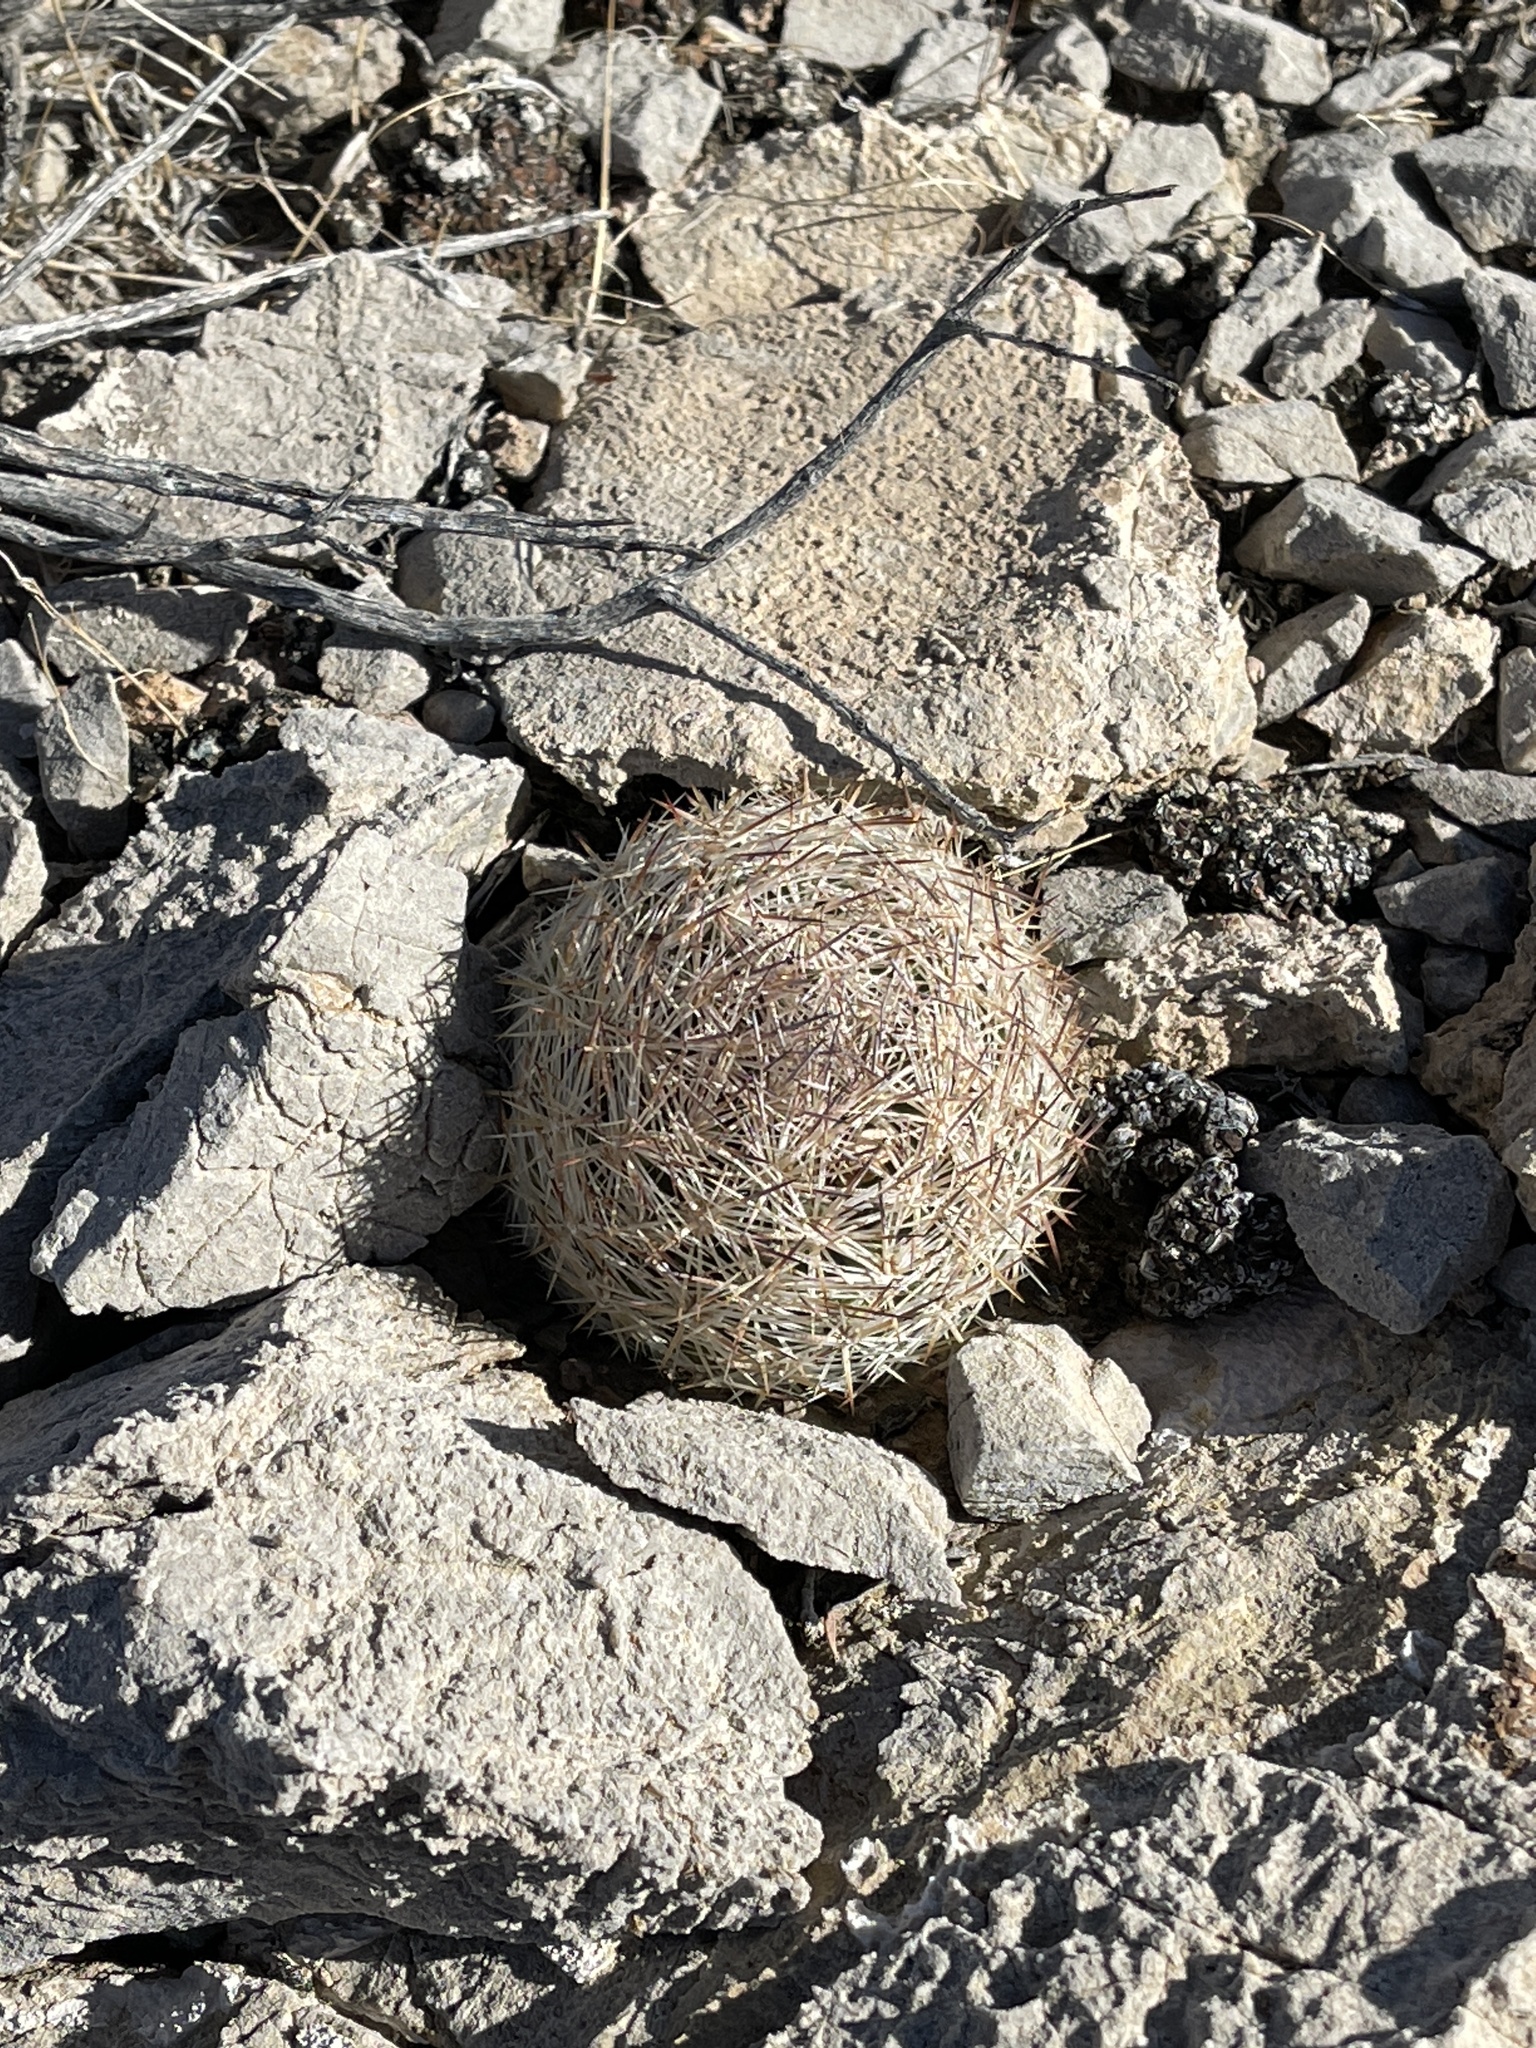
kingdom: Plantae
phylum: Tracheophyta
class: Magnoliopsida
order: Caryophyllales
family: Cactaceae
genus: Pelecyphora
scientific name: Pelecyphora dasyacantha
